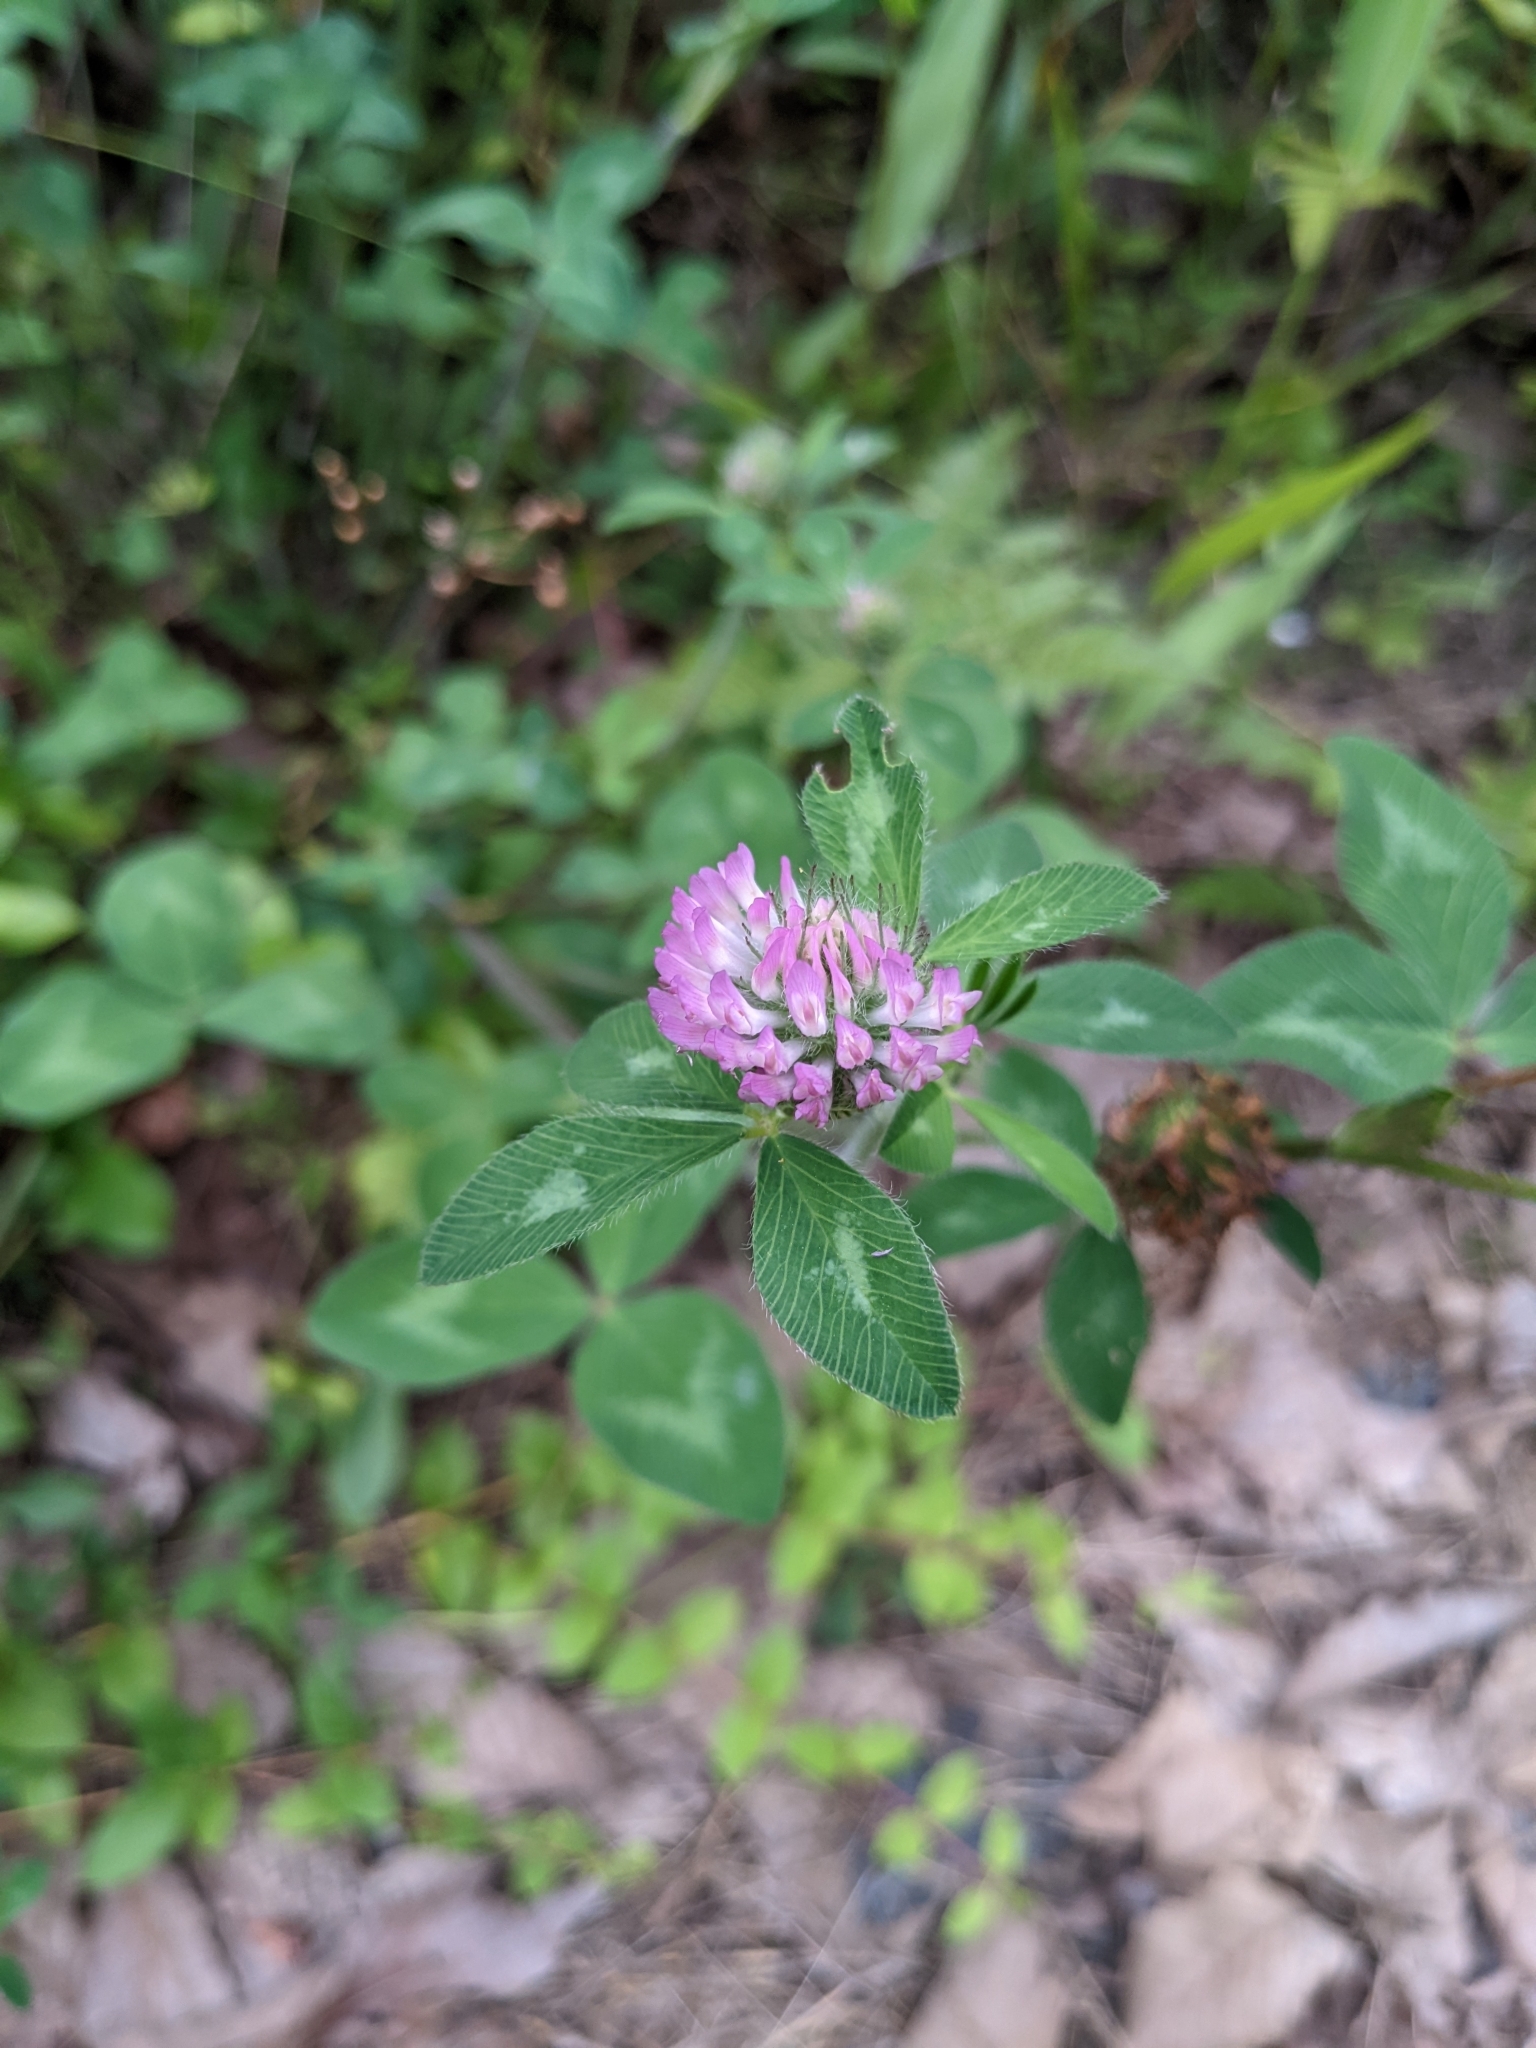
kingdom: Plantae
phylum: Tracheophyta
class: Magnoliopsida
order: Fabales
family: Fabaceae
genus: Trifolium
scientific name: Trifolium pratense
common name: Red clover
